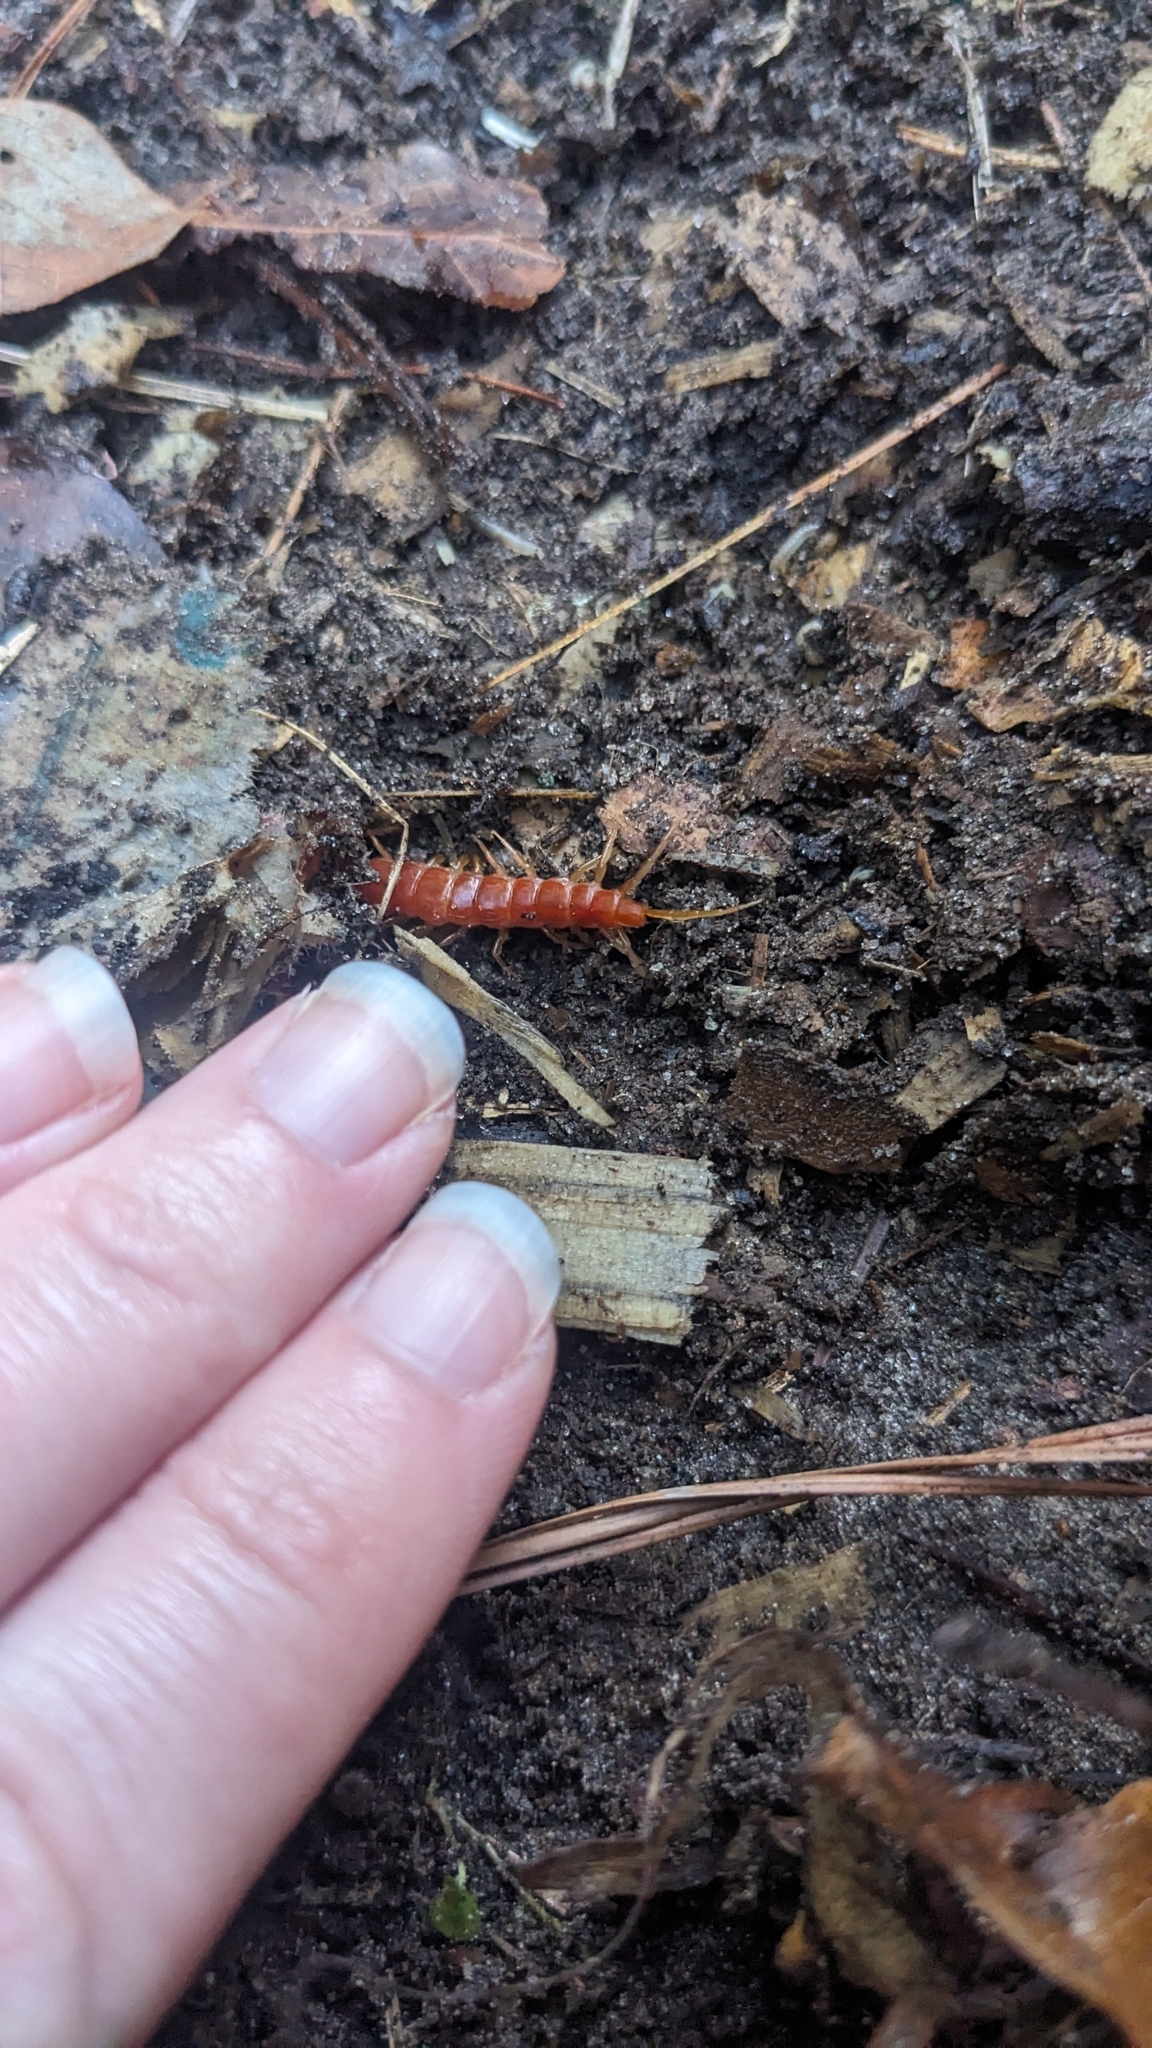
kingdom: Animalia
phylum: Arthropoda
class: Chilopoda
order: Scolopendromorpha
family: Scolopocryptopidae
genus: Scolopocryptops
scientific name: Scolopocryptops sexspinosus
